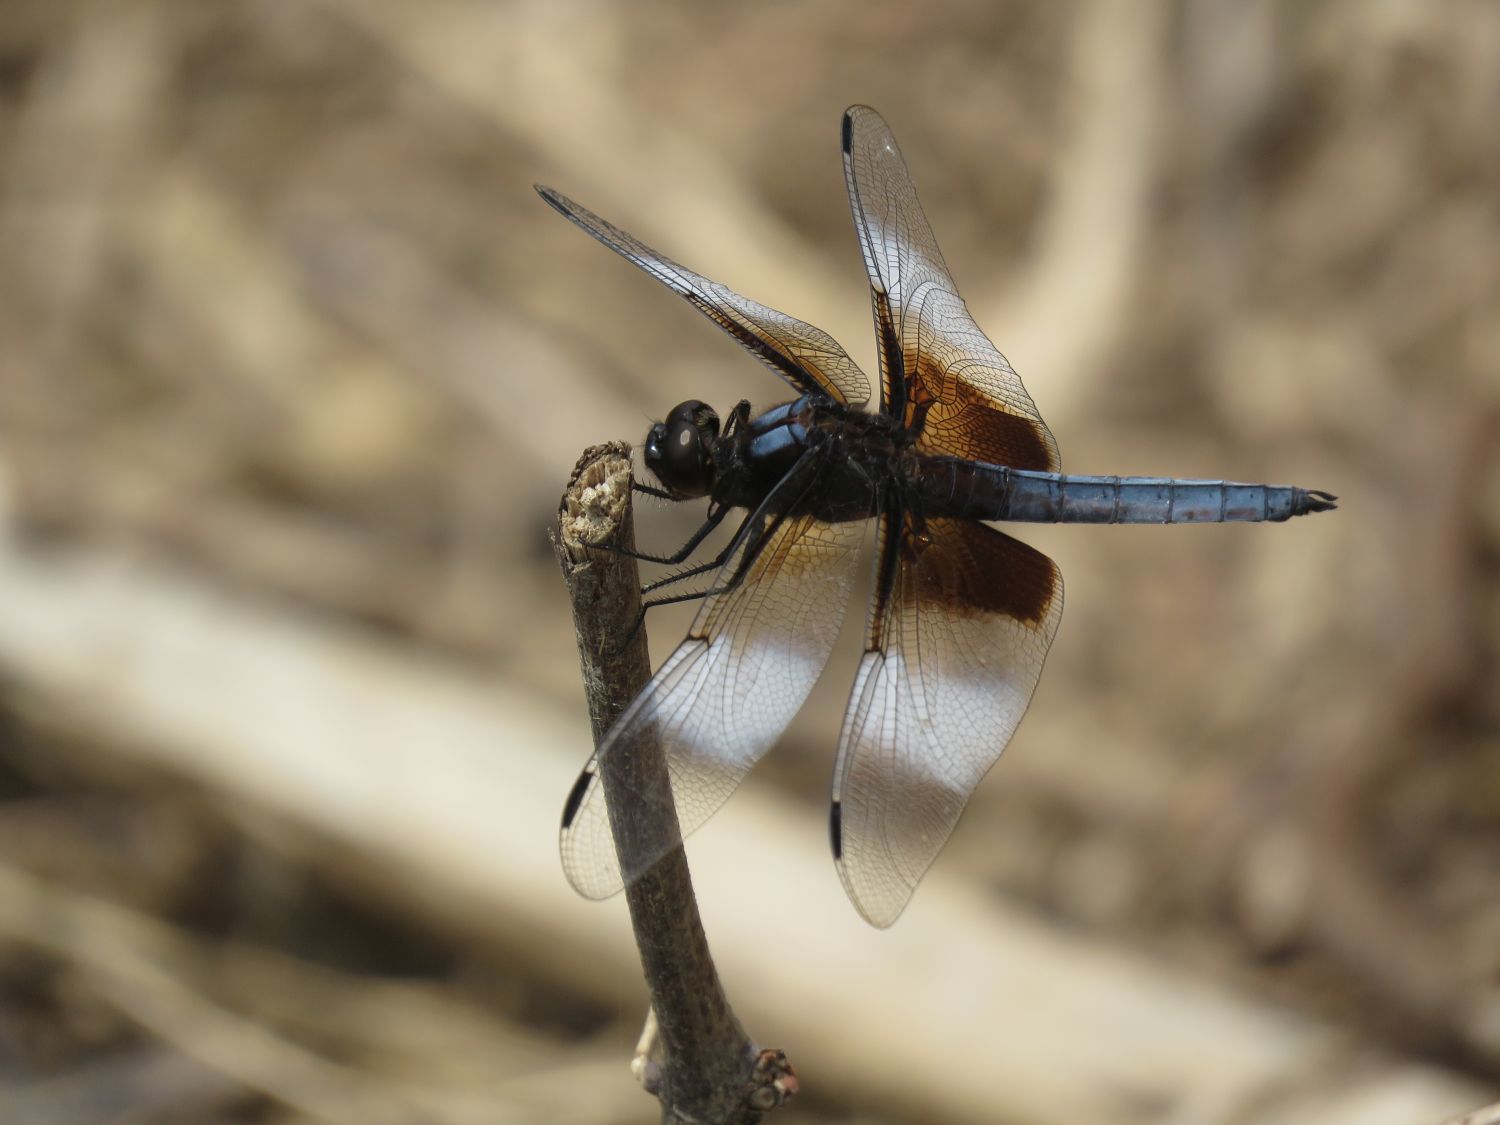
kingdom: Animalia
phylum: Arthropoda
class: Insecta
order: Odonata
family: Libellulidae
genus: Libellula
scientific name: Libellula luctuosa
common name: Widow skimmer
